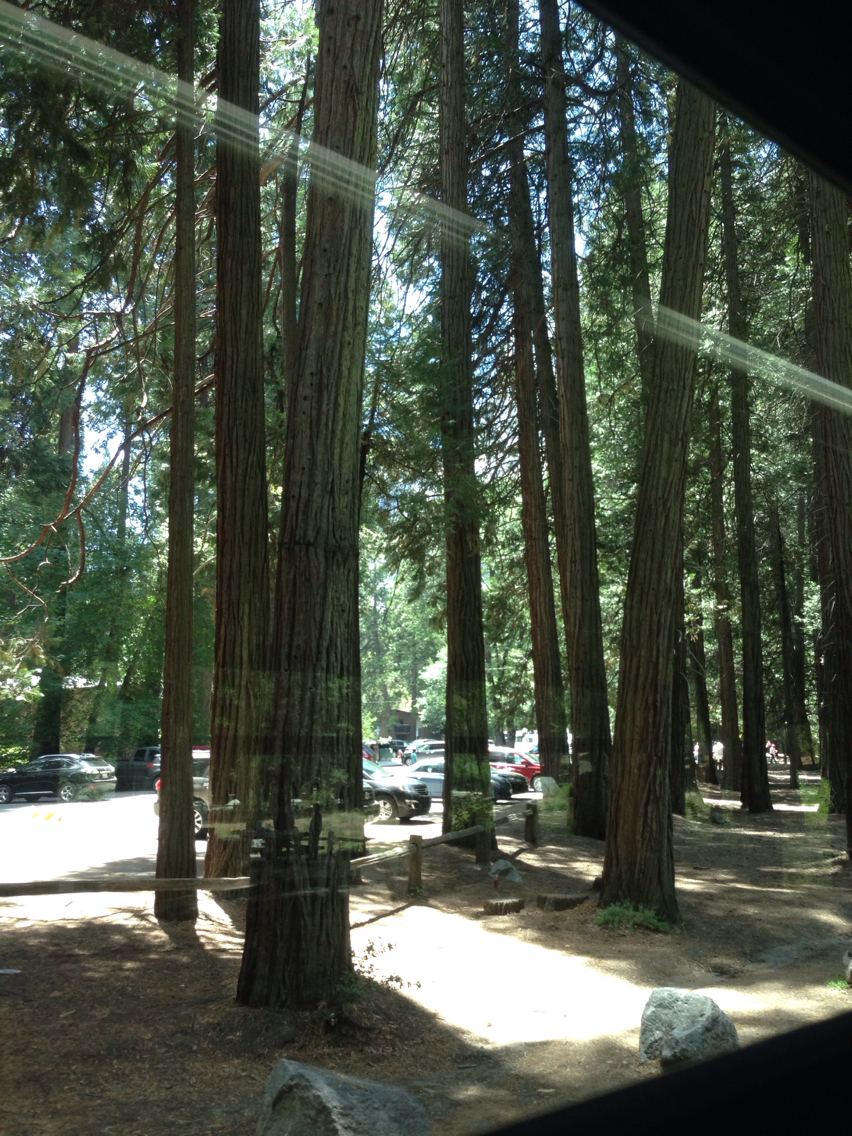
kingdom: Plantae
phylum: Tracheophyta
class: Pinopsida
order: Pinales
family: Cupressaceae
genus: Calocedrus
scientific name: Calocedrus decurrens
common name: Californian incense-cedar
